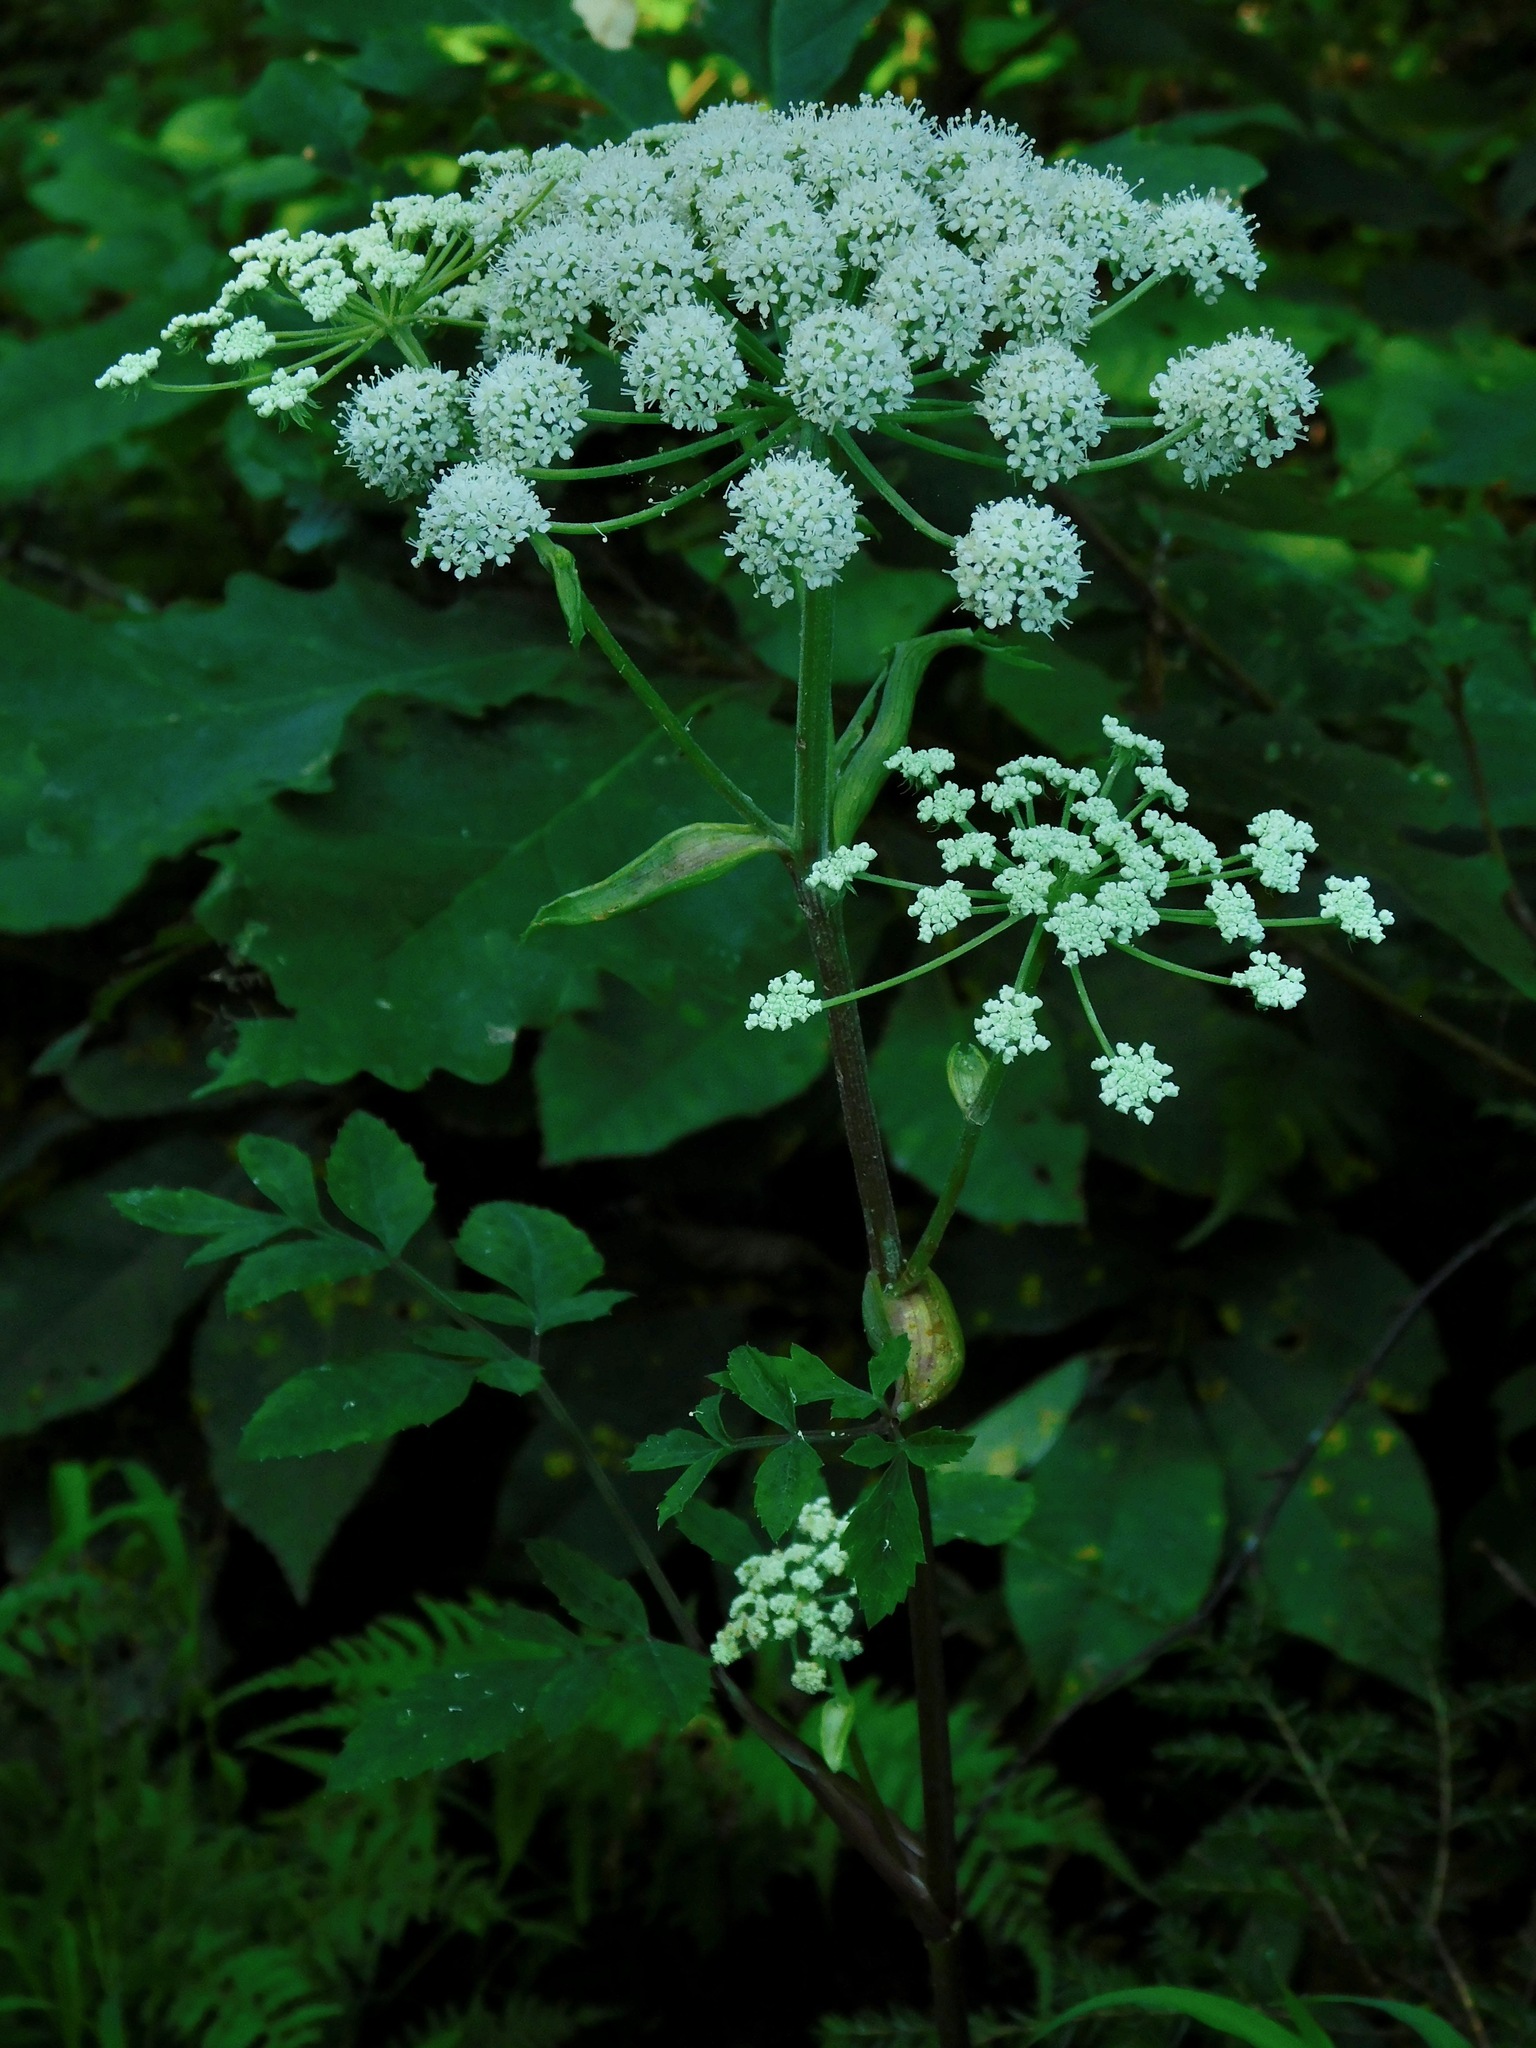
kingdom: Plantae
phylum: Tracheophyta
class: Magnoliopsida
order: Apiales
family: Apiaceae
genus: Angelica
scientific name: Angelica venenosa
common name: Hairy angelica
